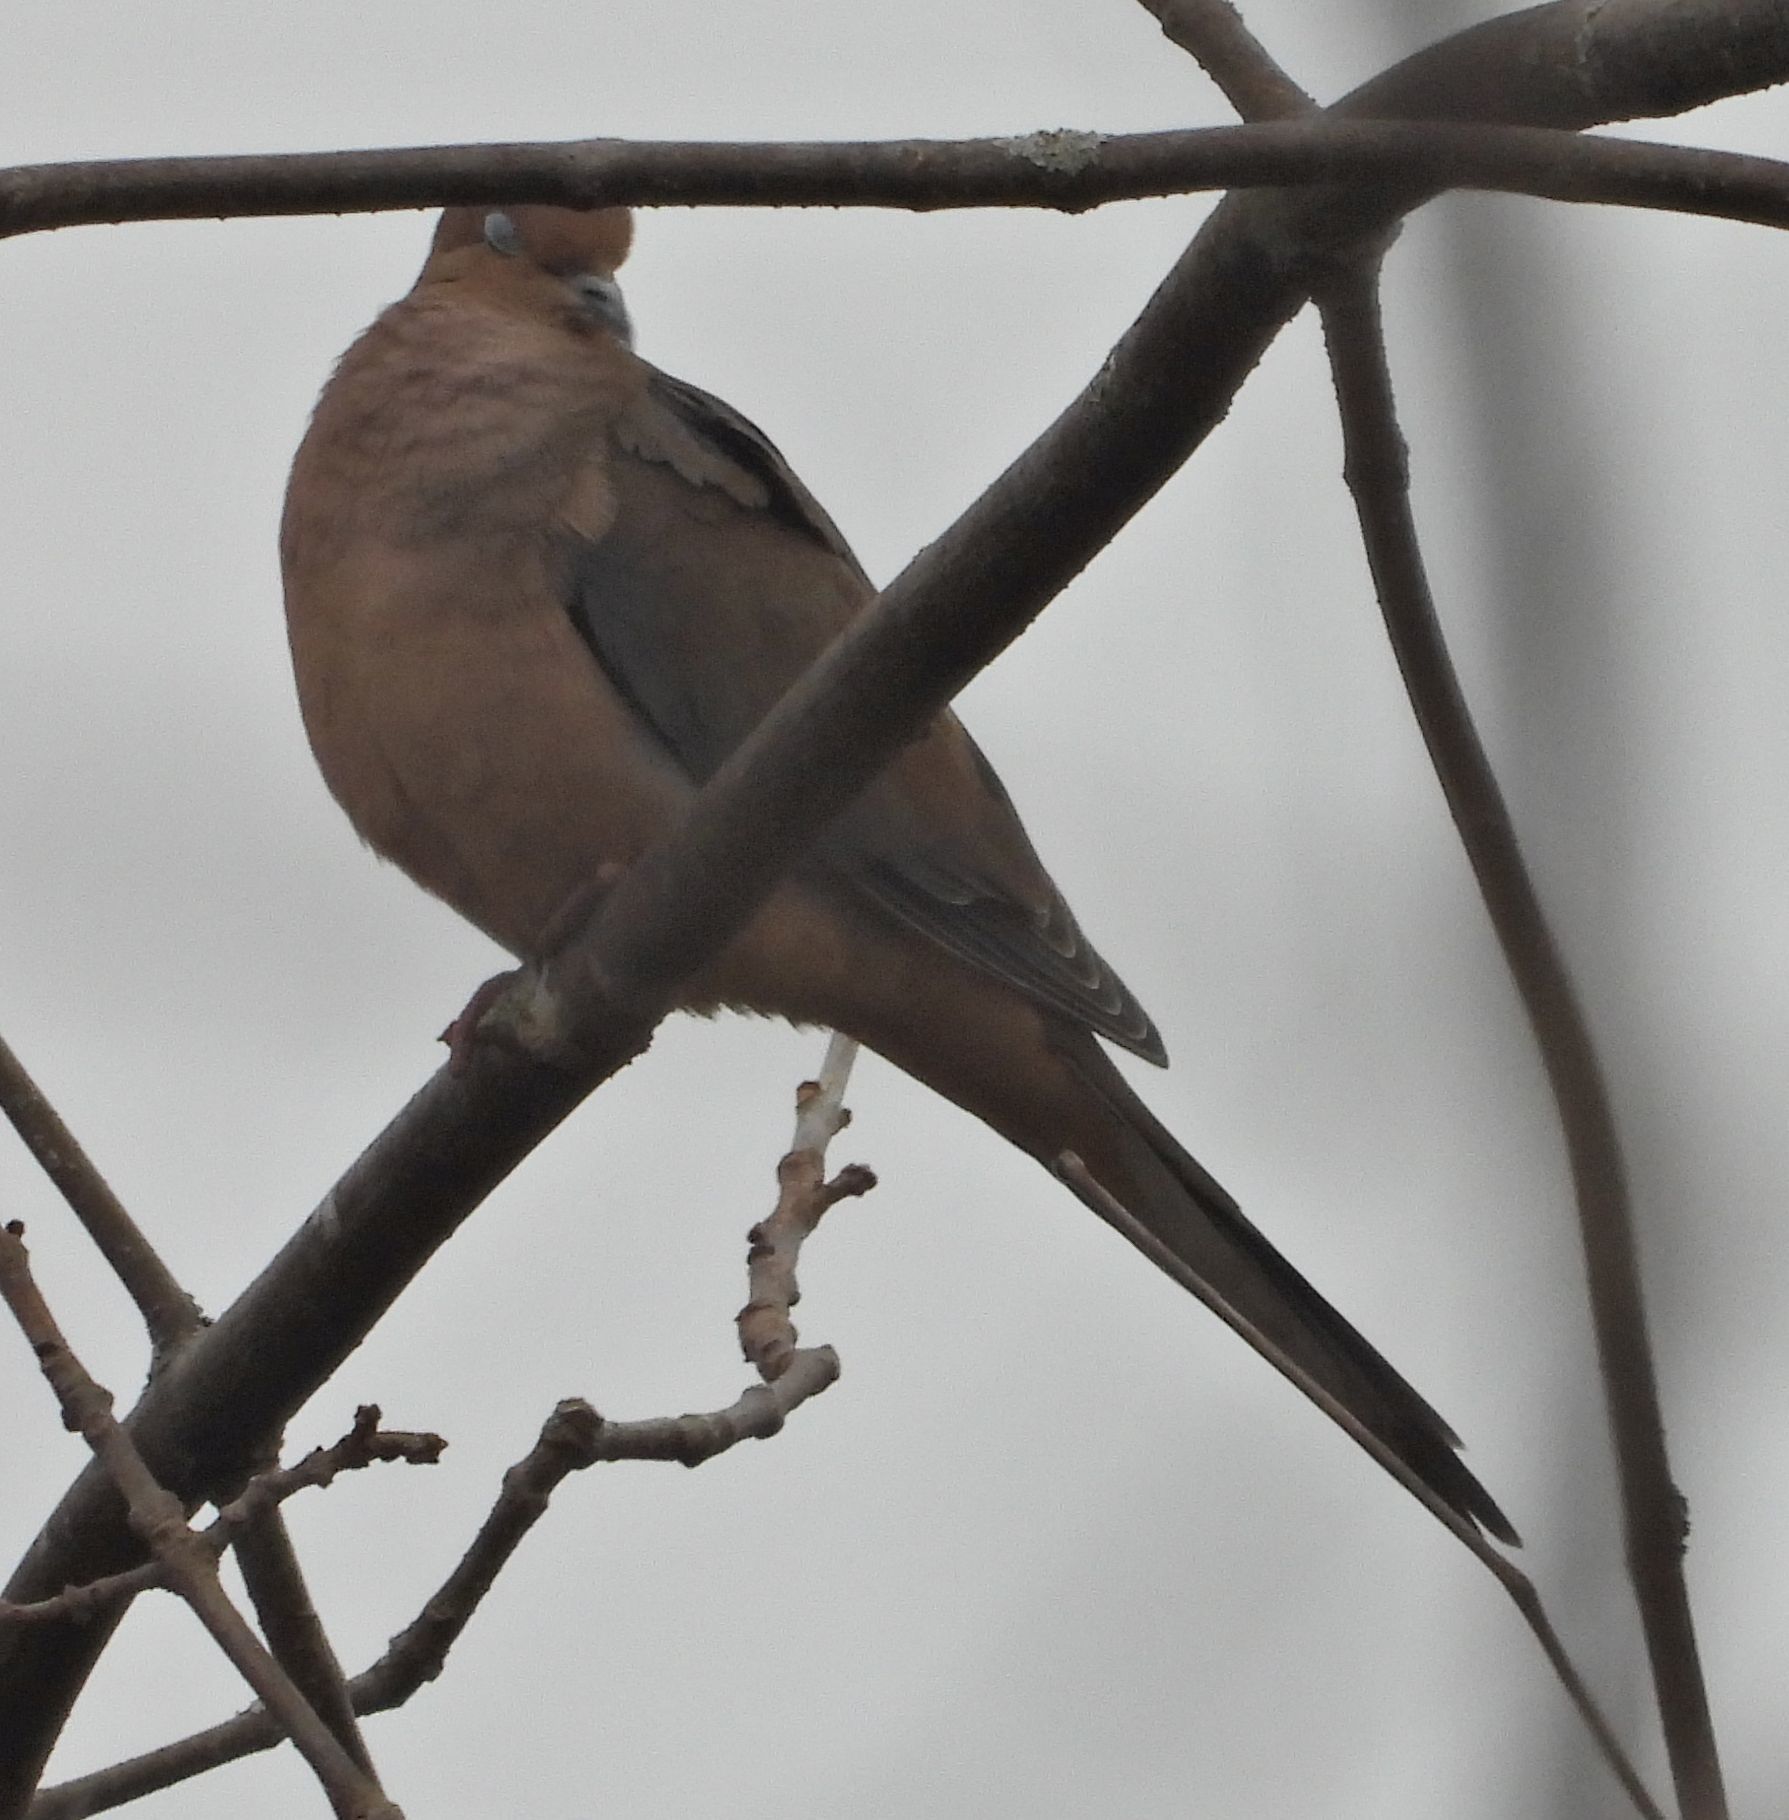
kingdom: Animalia
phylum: Chordata
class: Aves
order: Columbiformes
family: Columbidae
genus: Zenaida
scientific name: Zenaida macroura
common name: Mourning dove
